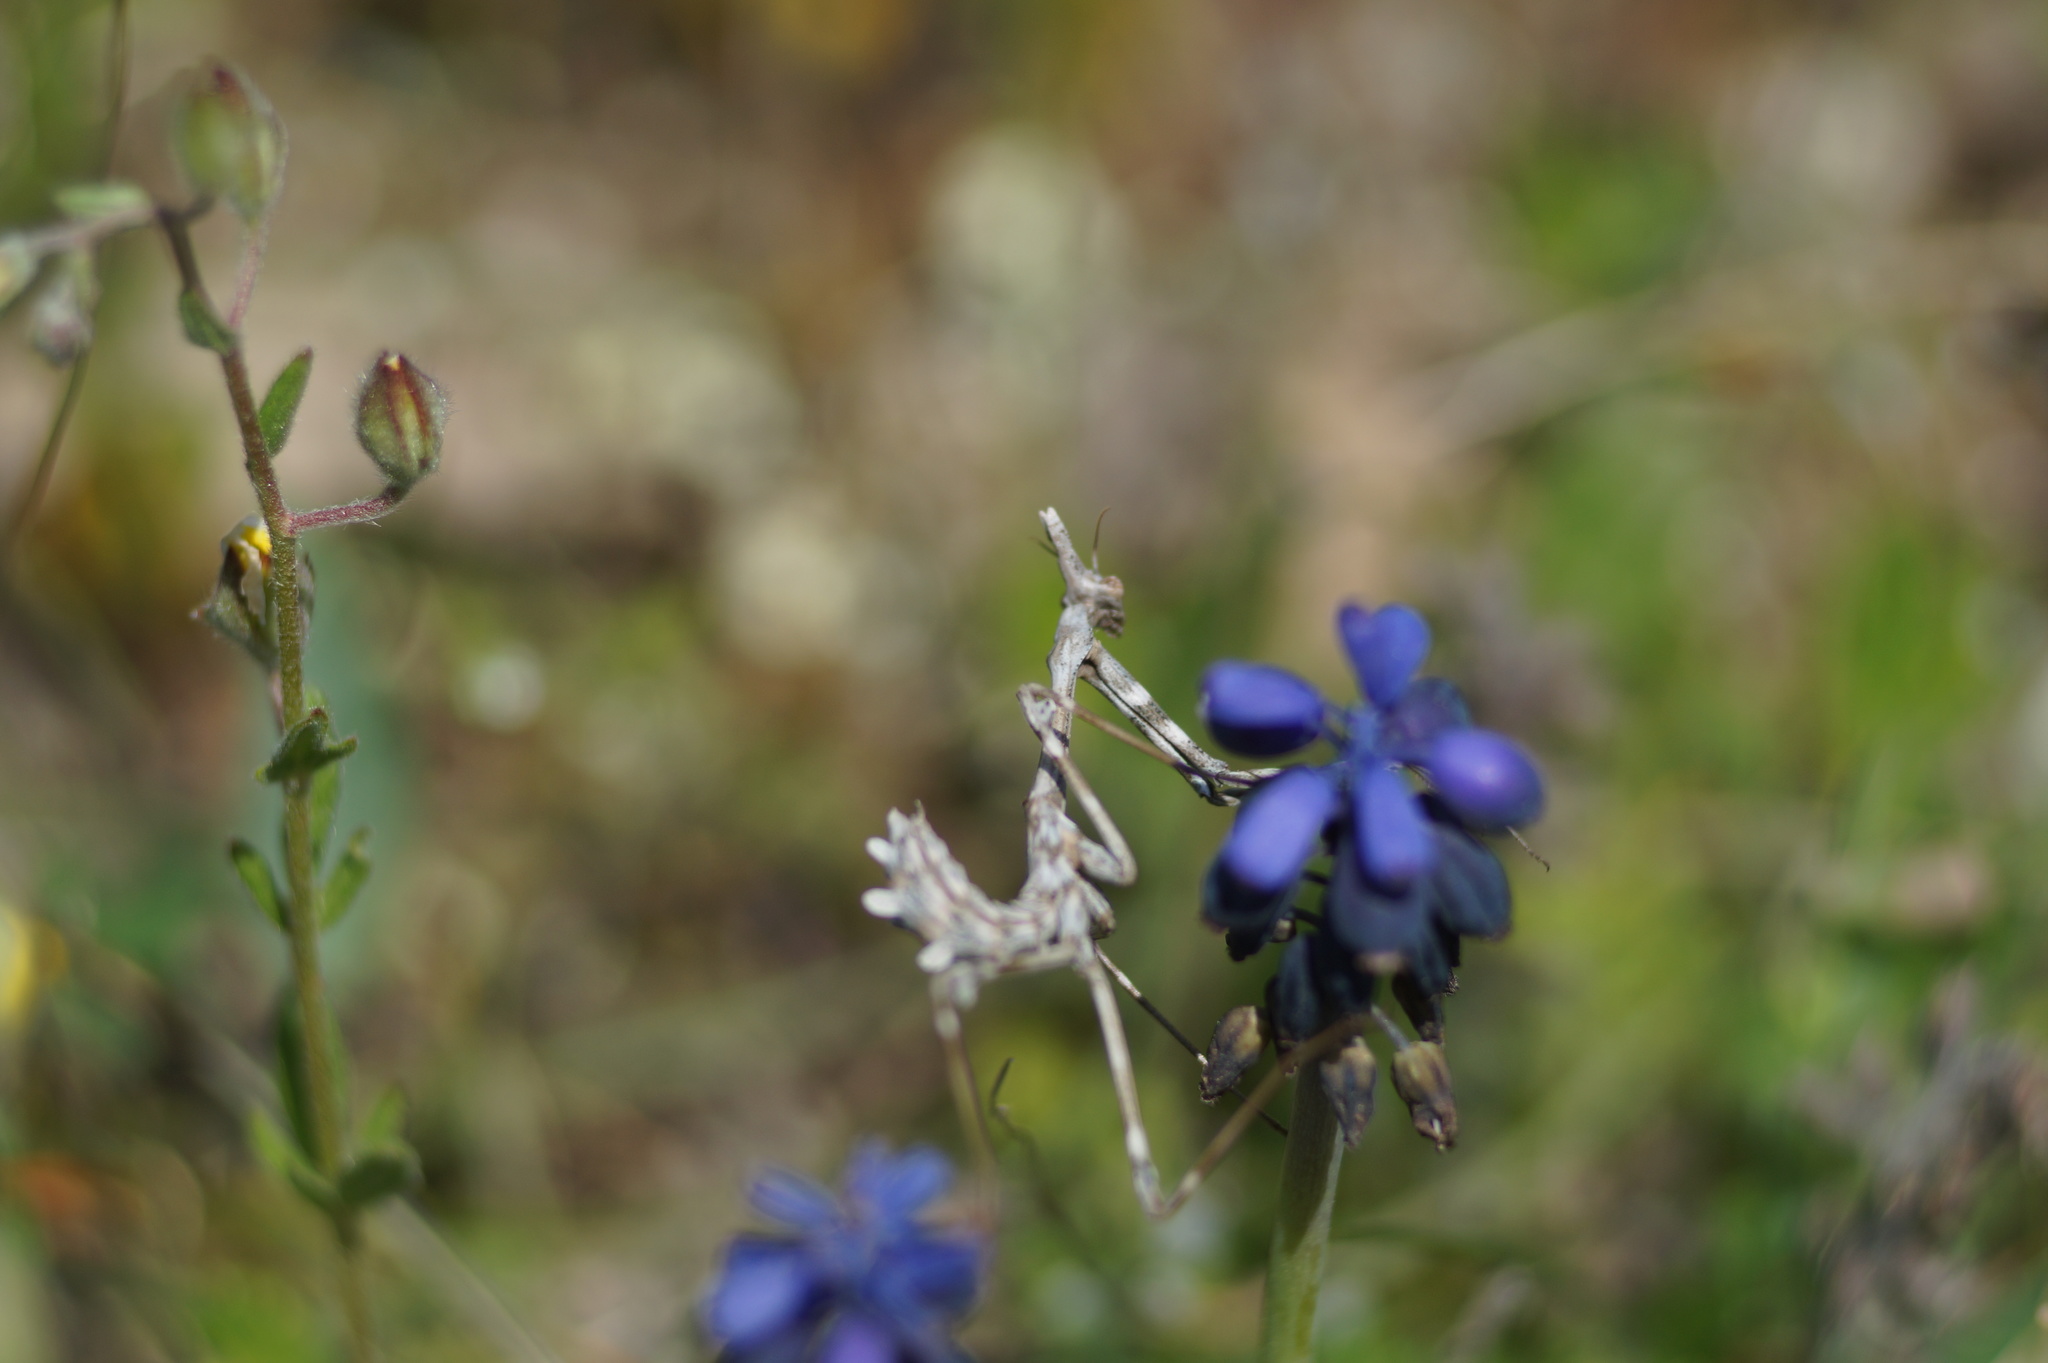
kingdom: Animalia
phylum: Arthropoda
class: Insecta
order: Mantodea
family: Empusidae
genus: Empusa
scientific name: Empusa fasciata
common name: Devil's mare
